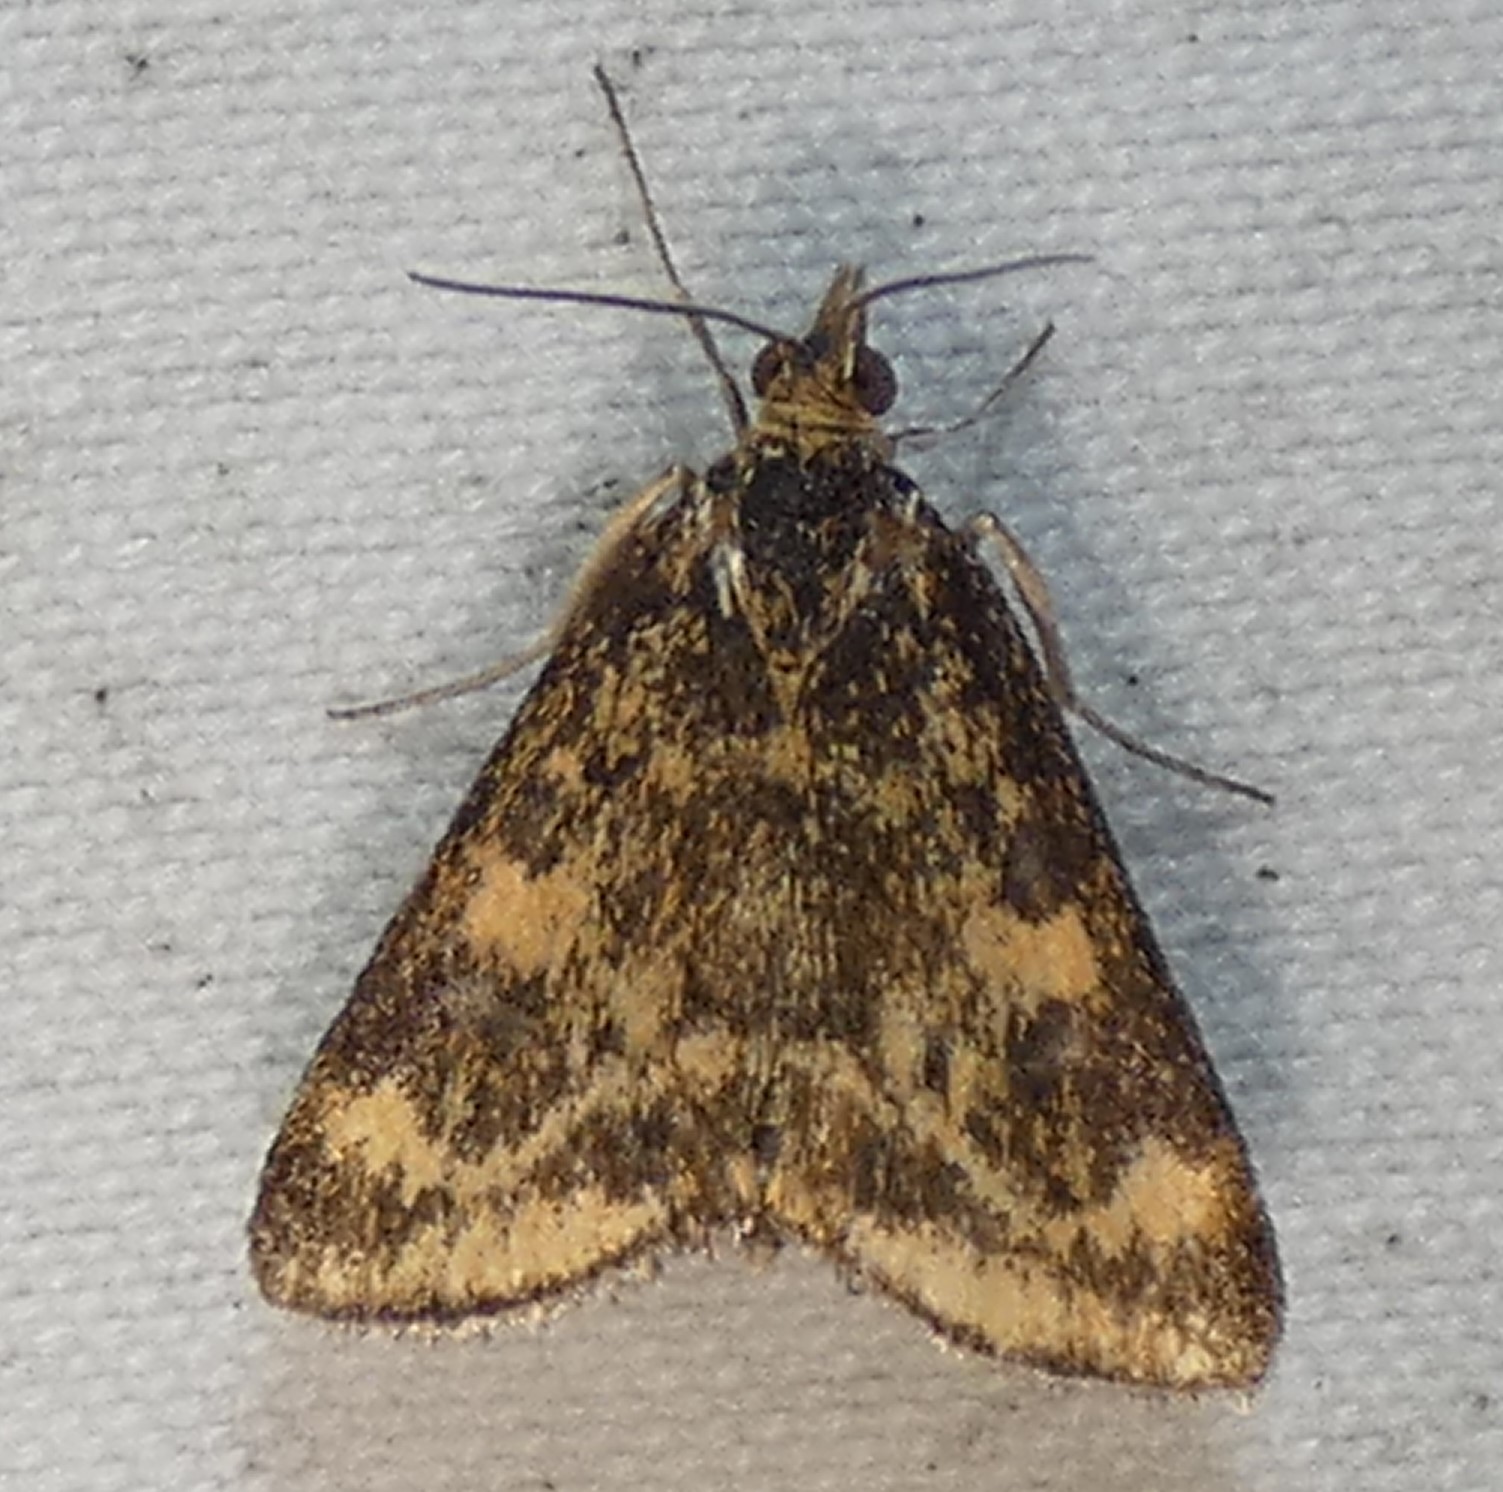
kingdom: Animalia
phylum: Arthropoda
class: Insecta
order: Lepidoptera
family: Crambidae
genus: Pyrausta
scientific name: Pyrausta subsequalis
